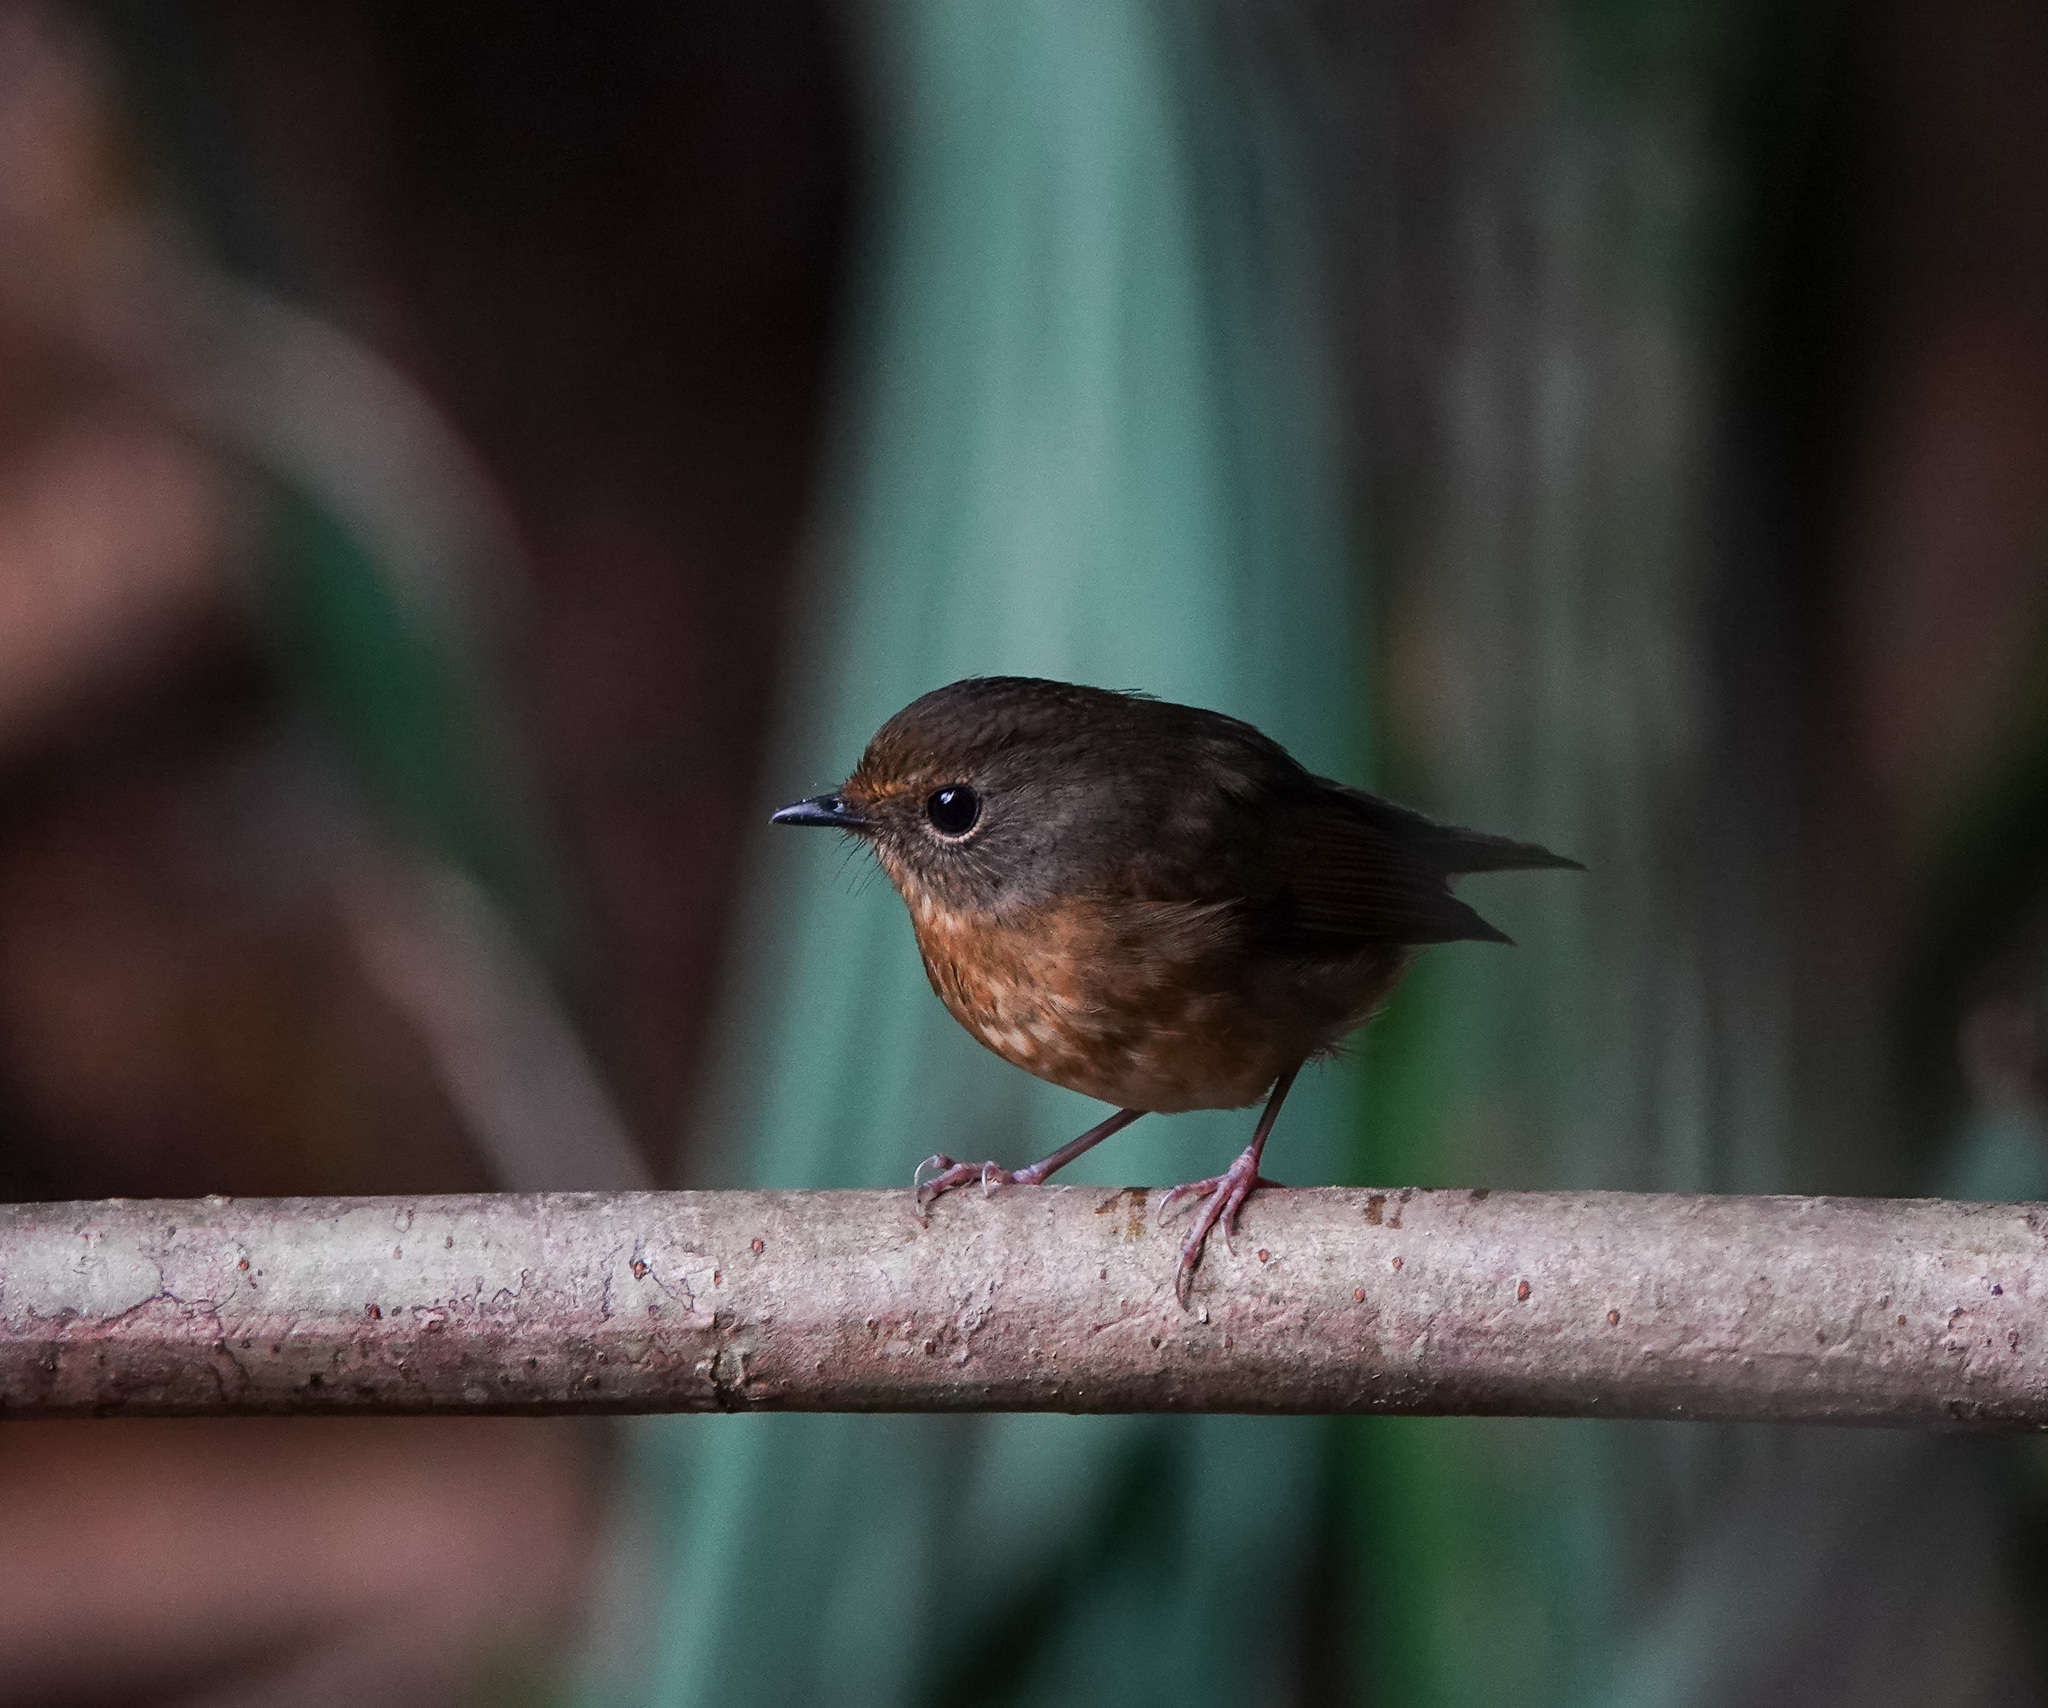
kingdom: Animalia
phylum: Chordata
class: Aves
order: Passeriformes
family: Muscicapidae
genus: Ficedula
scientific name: Ficedula hyperythra
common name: Snowy-browed flycatcher
